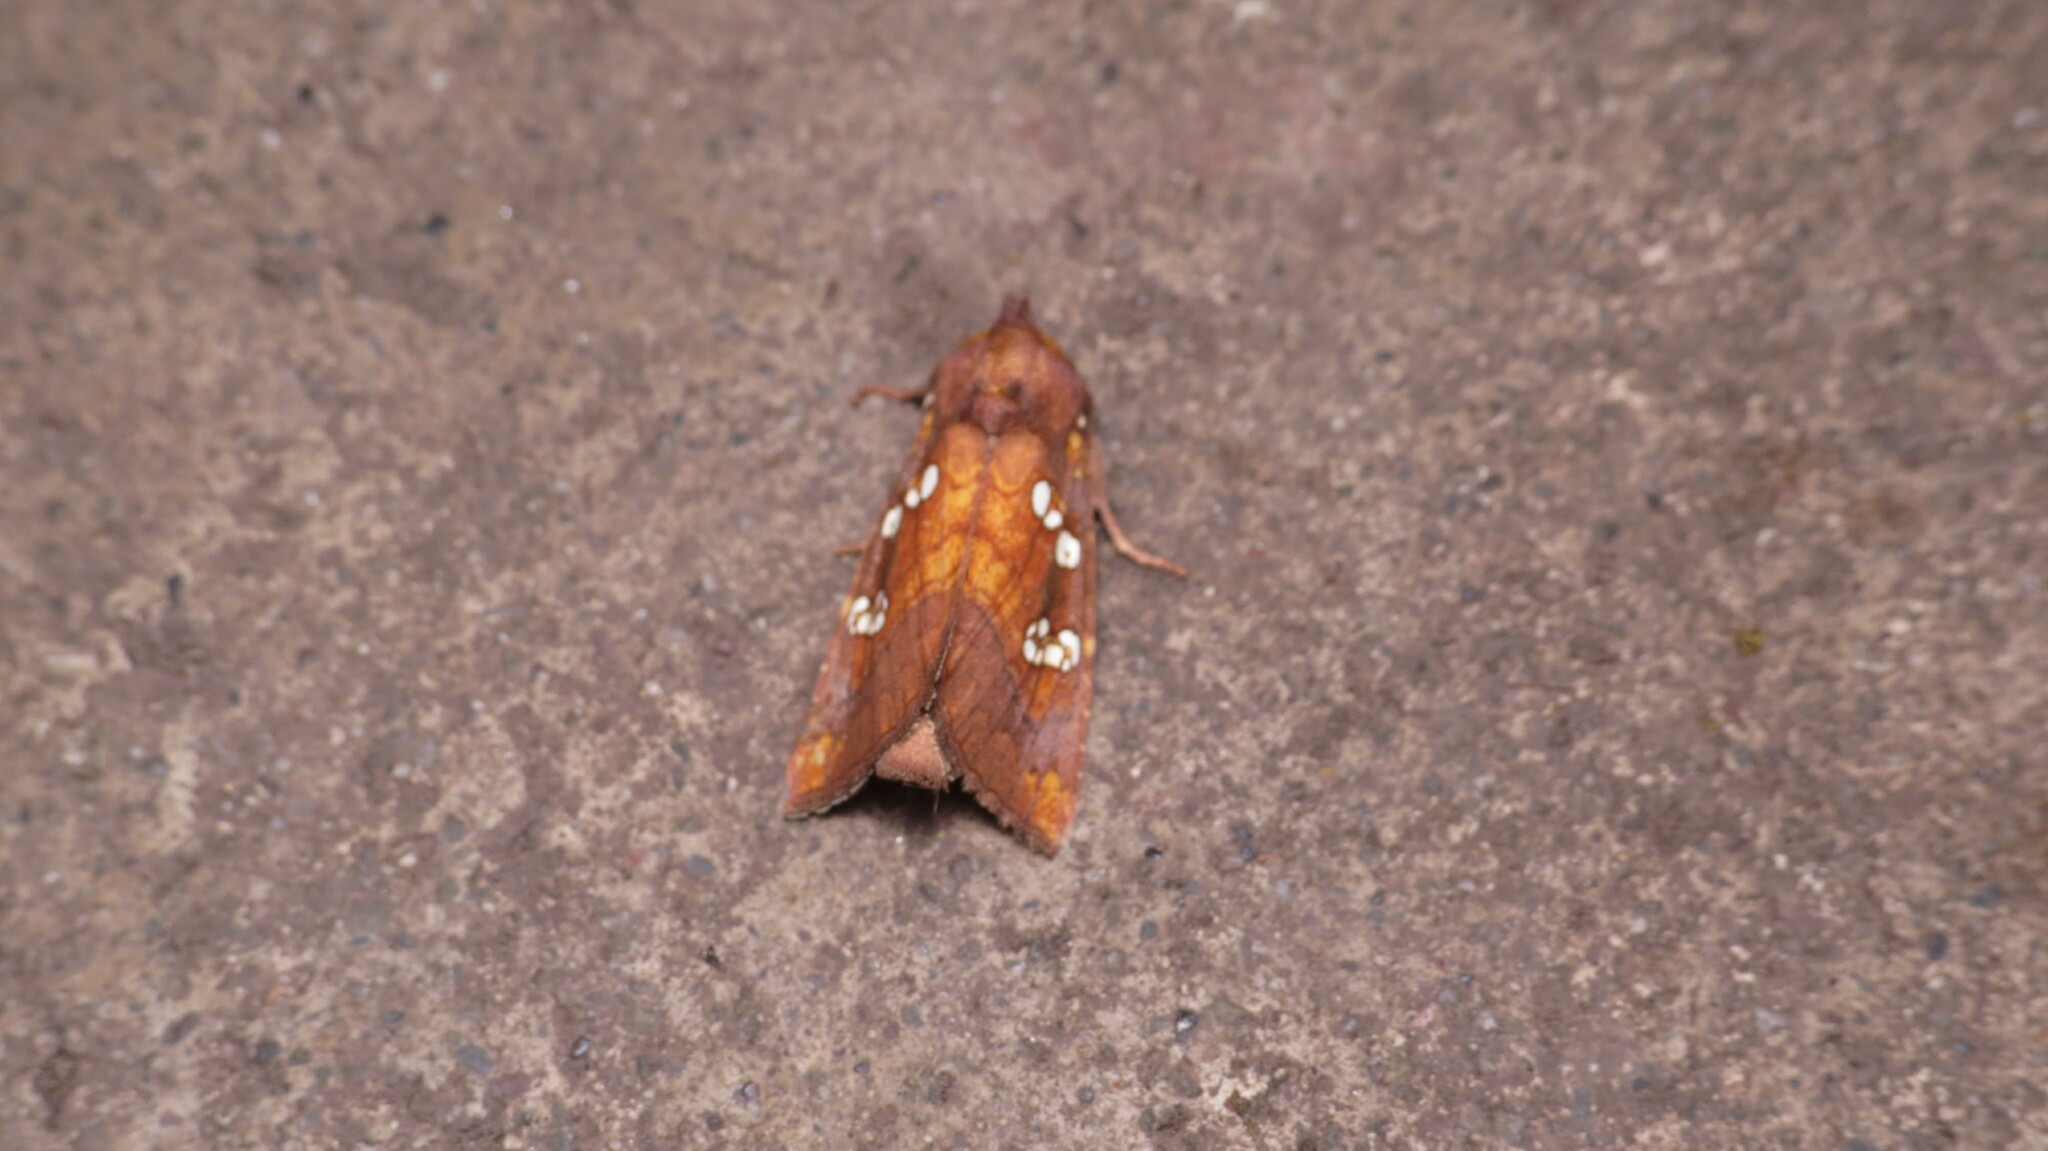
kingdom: Animalia
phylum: Arthropoda
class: Insecta
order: Lepidoptera
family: Noctuidae
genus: Papaipema
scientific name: Papaipema baptisiae
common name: Wild indigo borer moth
